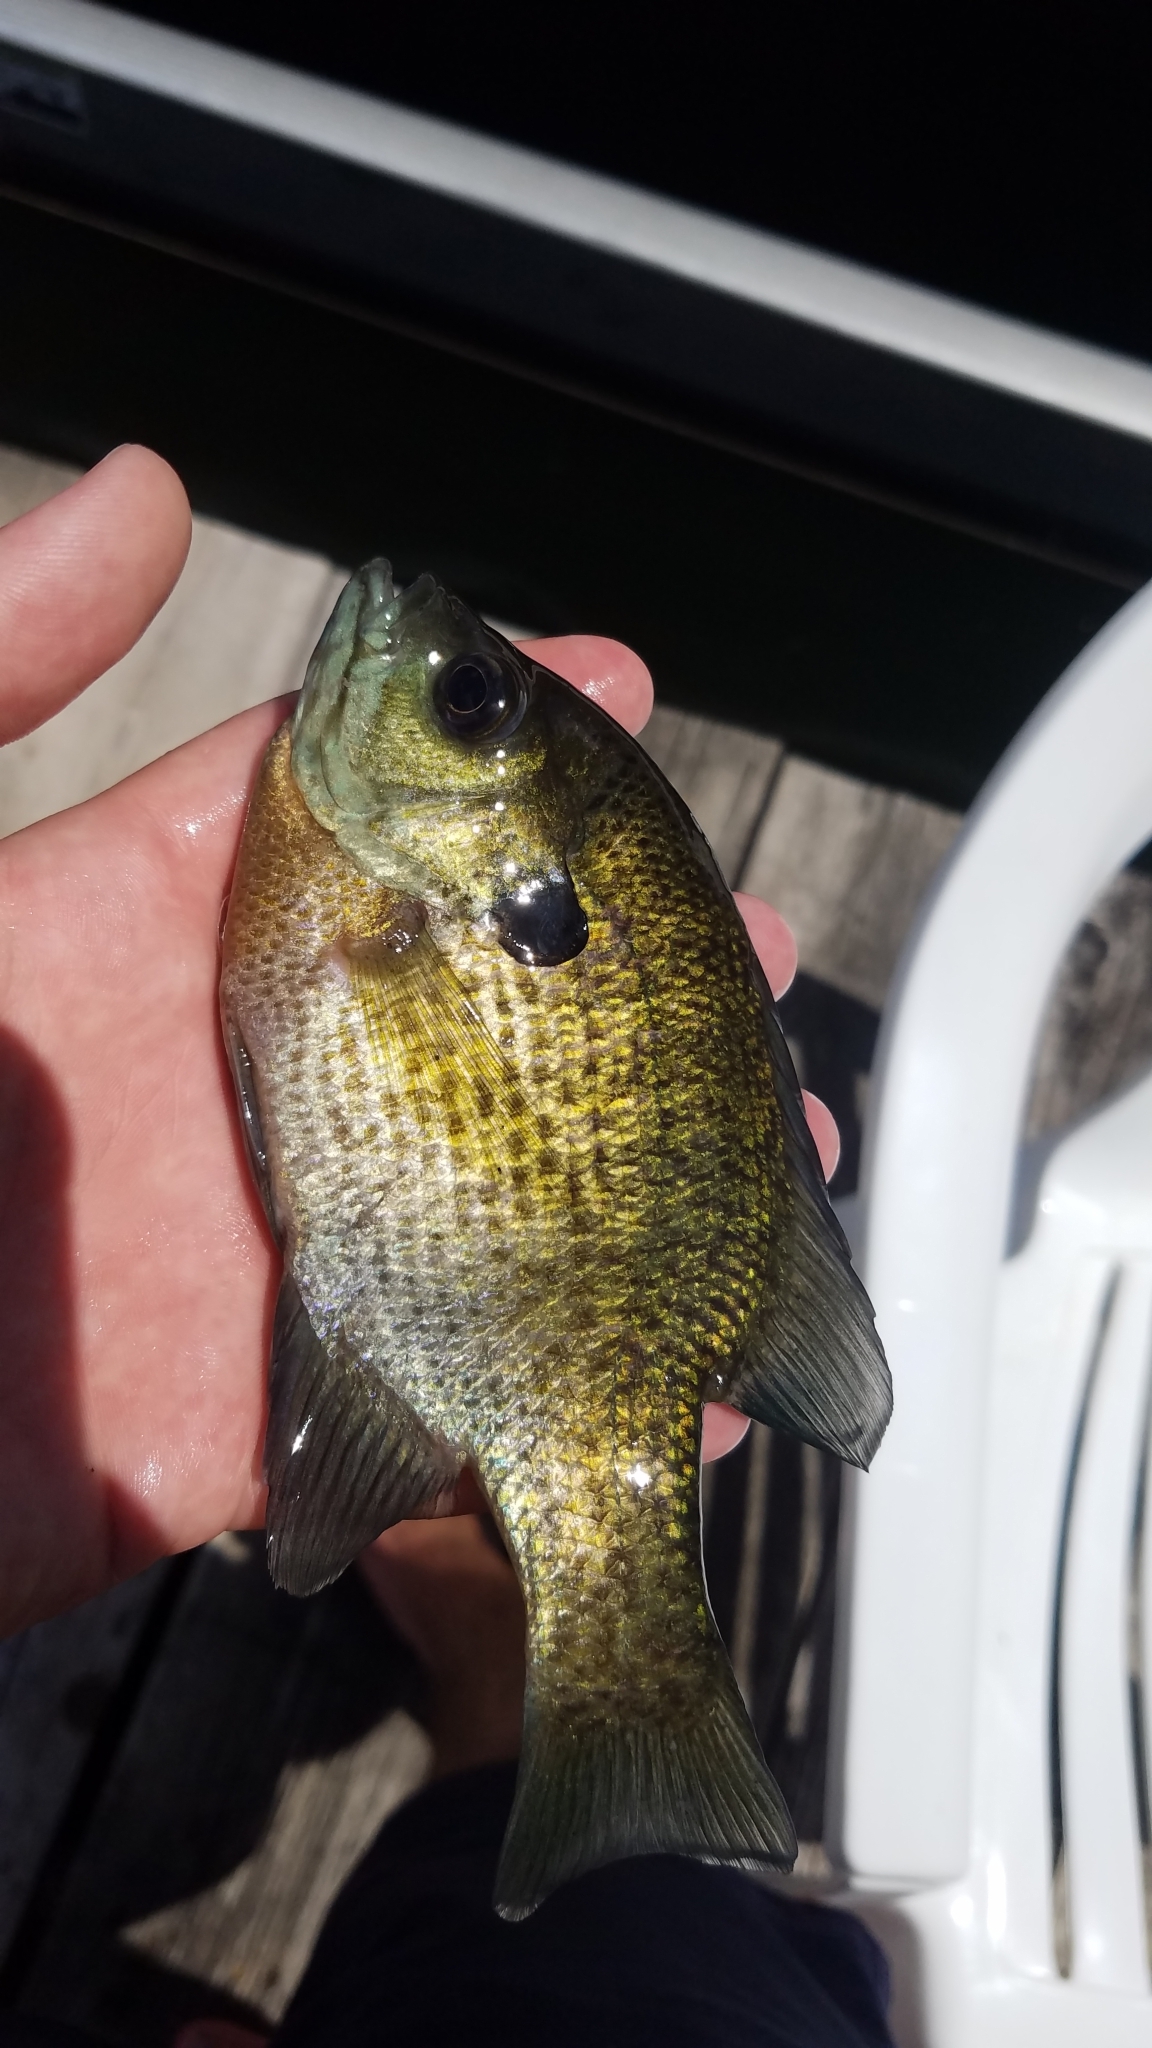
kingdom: Animalia
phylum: Chordata
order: Perciformes
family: Centrarchidae
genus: Lepomis
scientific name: Lepomis macrochirus
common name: Bluegill
